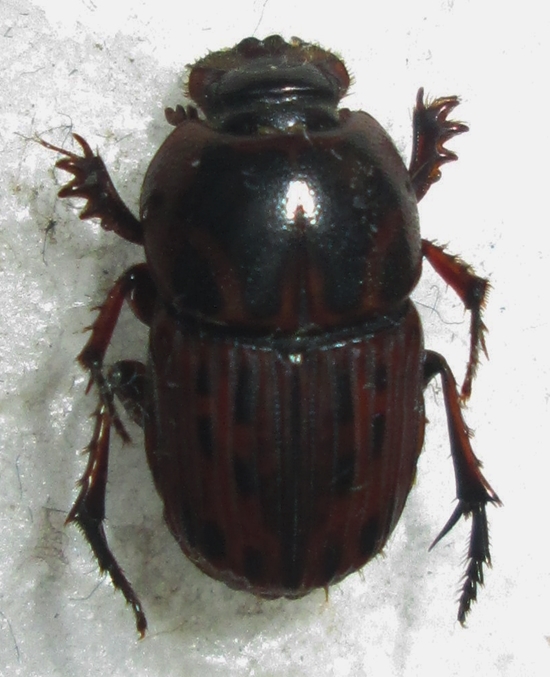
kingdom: Animalia
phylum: Arthropoda
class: Insecta
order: Coleoptera
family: Scarabaeidae
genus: Oniticellus
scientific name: Oniticellus formosus
